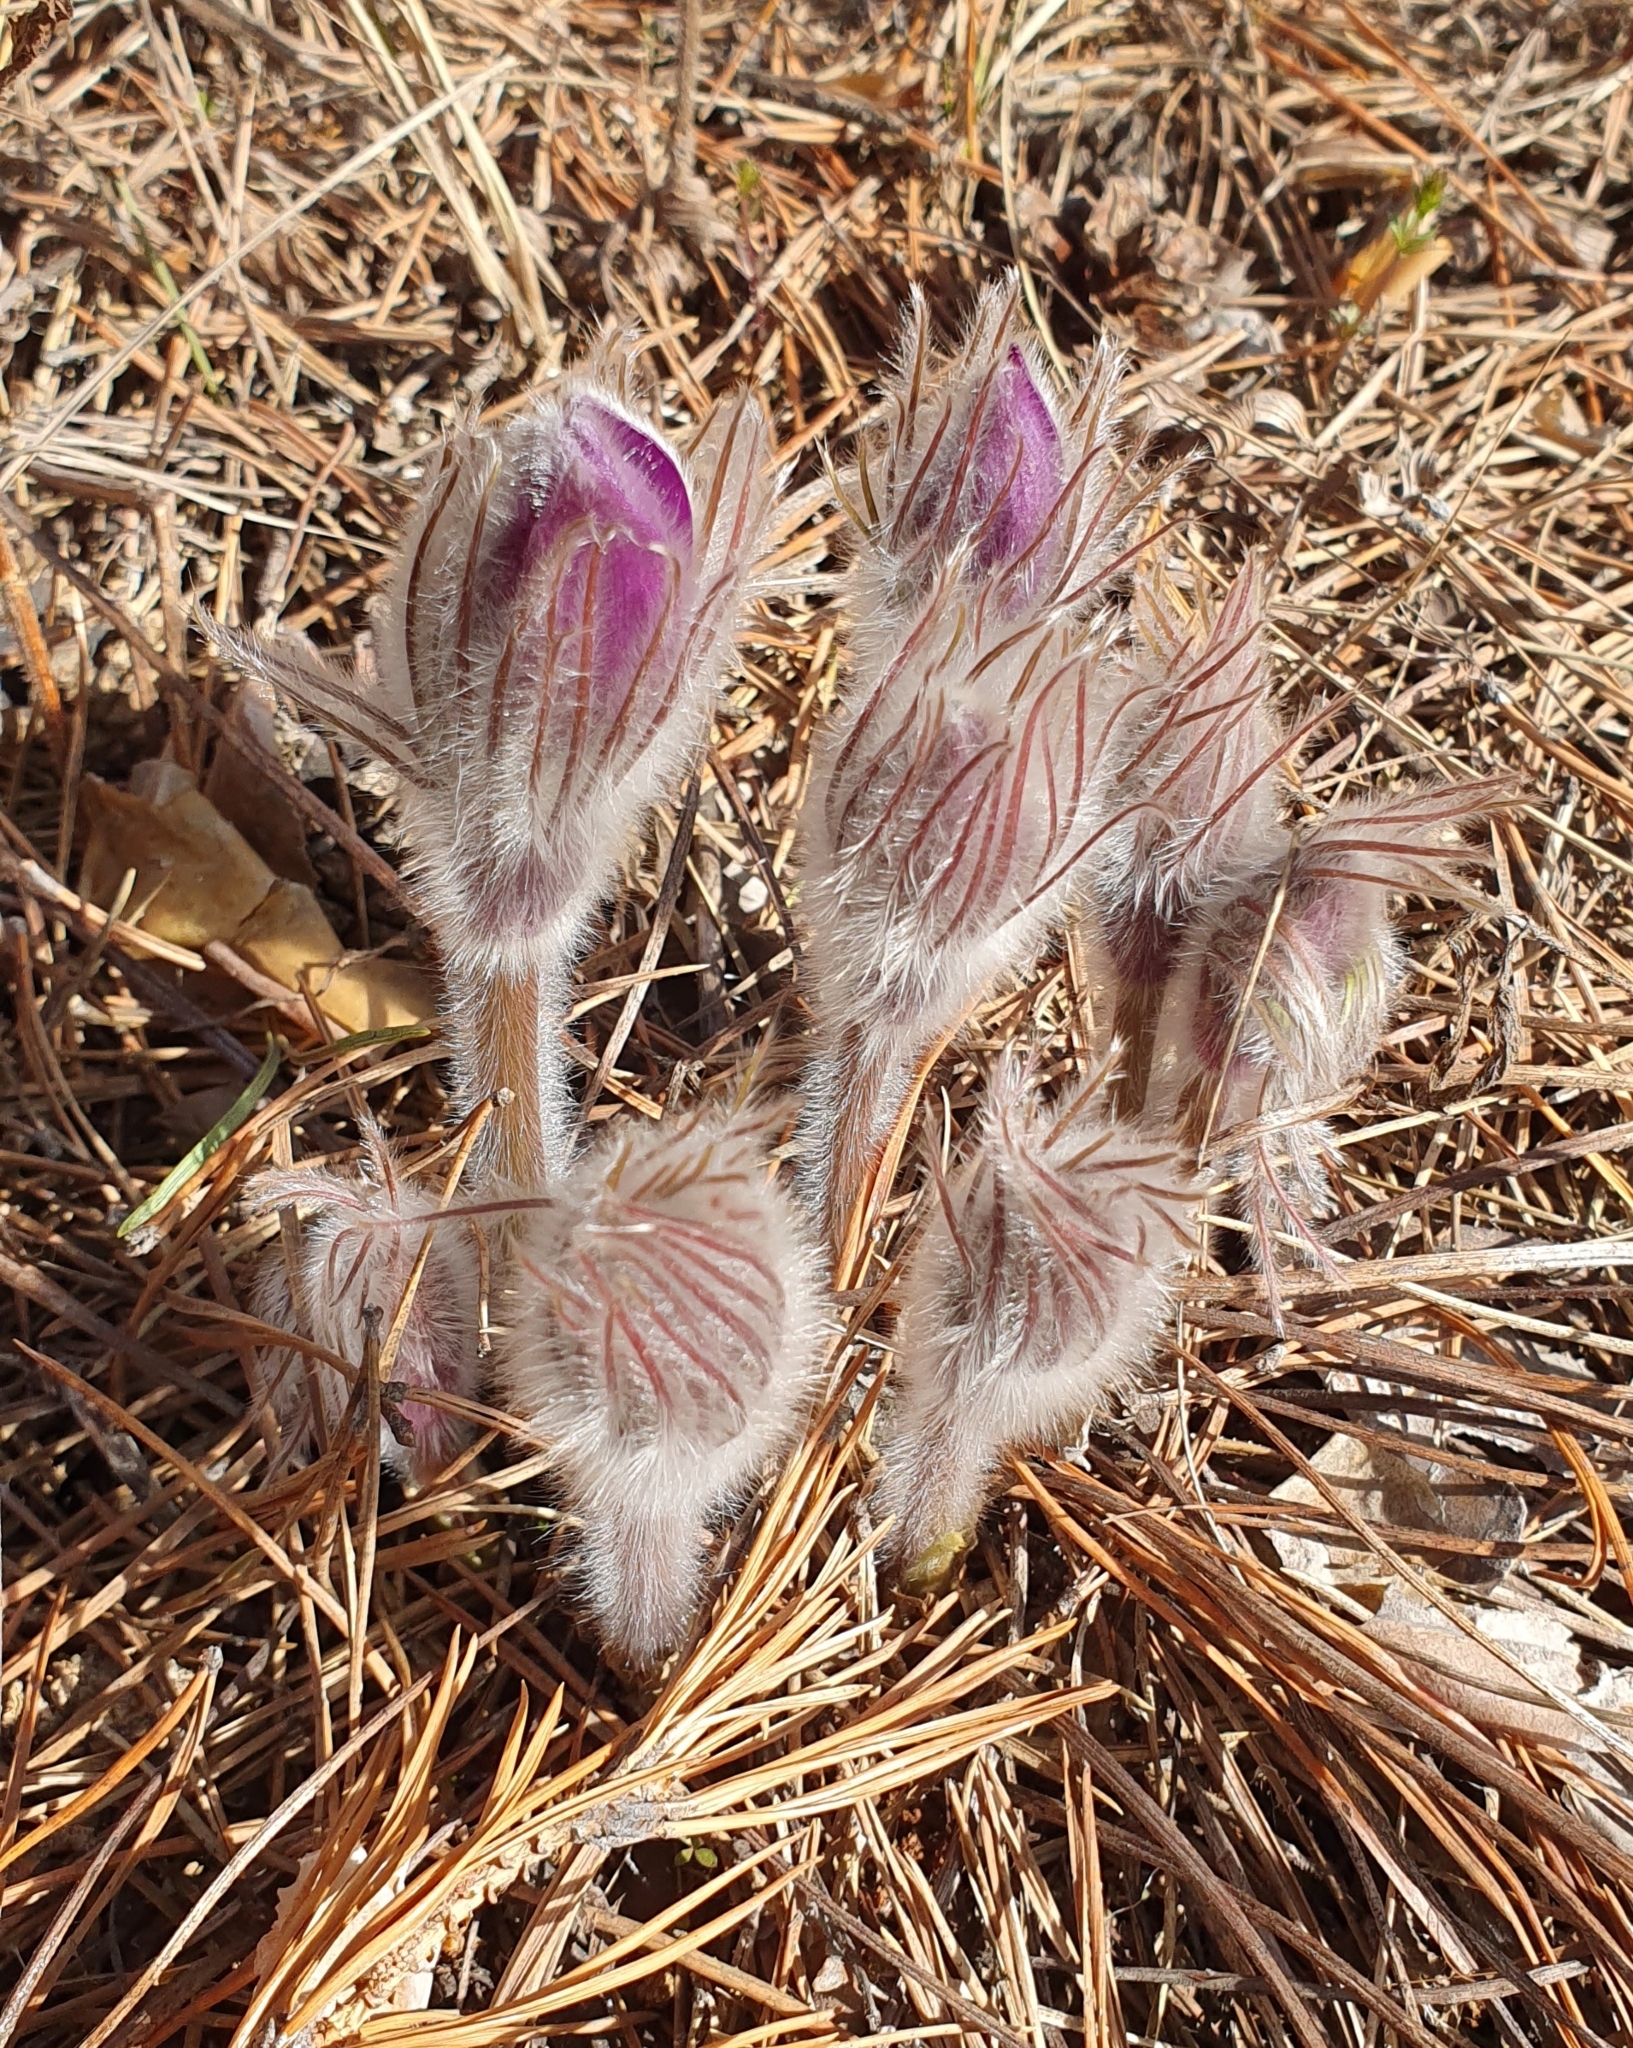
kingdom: Plantae
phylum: Tracheophyta
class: Magnoliopsida
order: Ranunculales
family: Ranunculaceae
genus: Pulsatilla
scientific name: Pulsatilla patens
